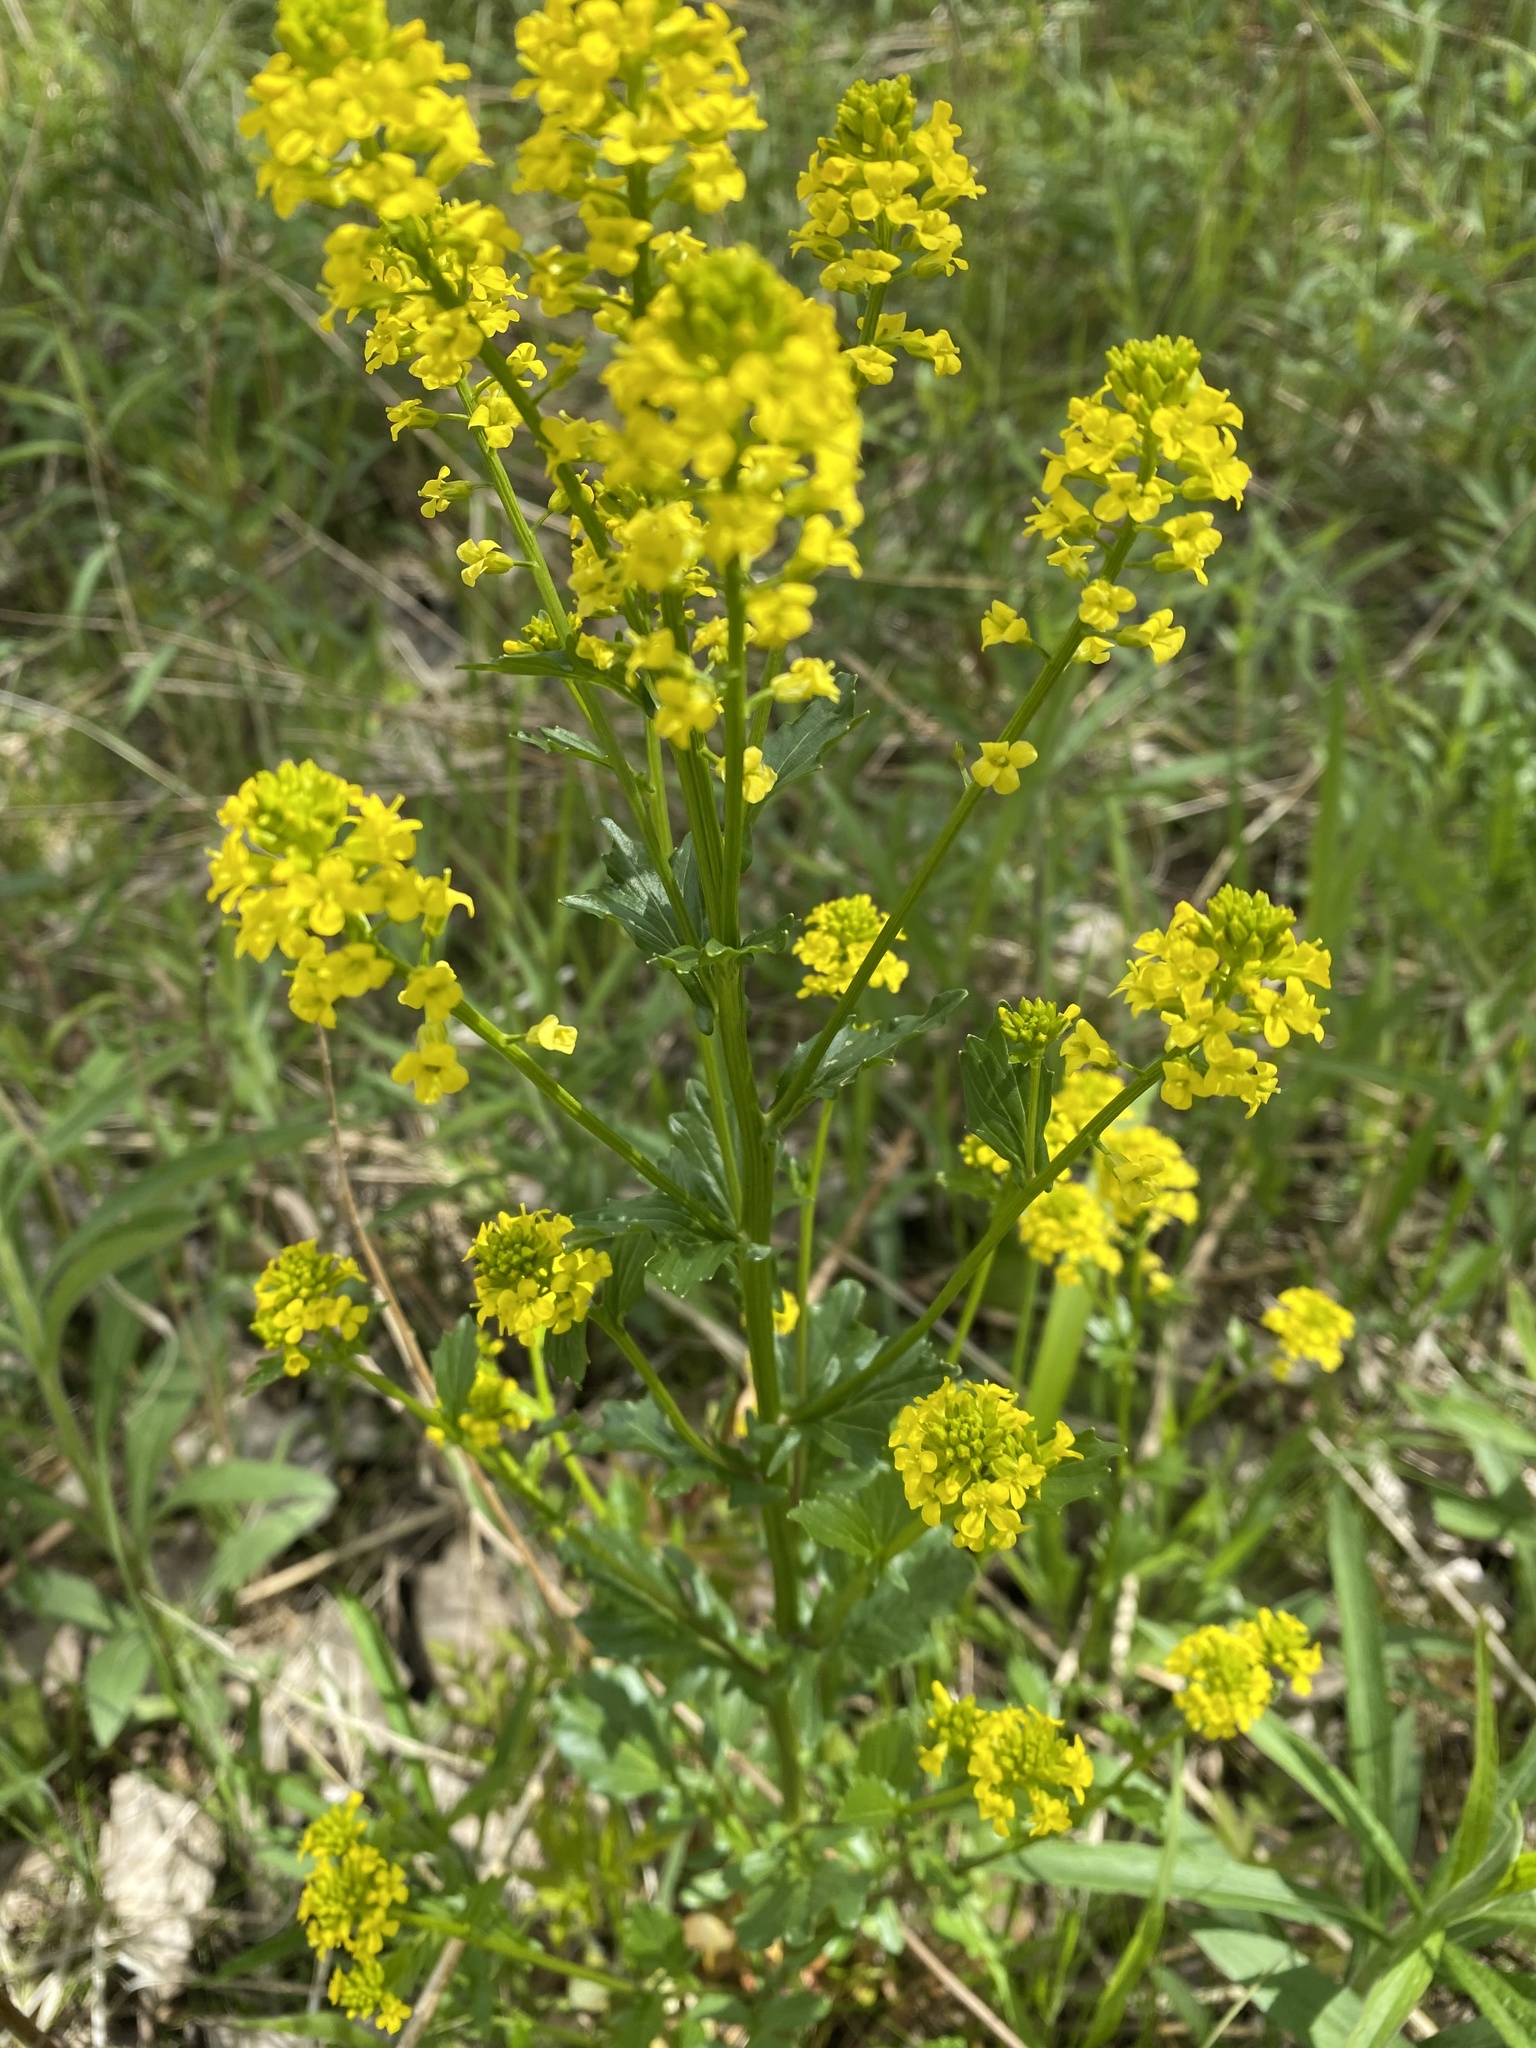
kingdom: Plantae
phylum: Tracheophyta
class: Magnoliopsida
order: Brassicales
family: Brassicaceae
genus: Barbarea
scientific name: Barbarea vulgaris
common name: Cressy-greens
